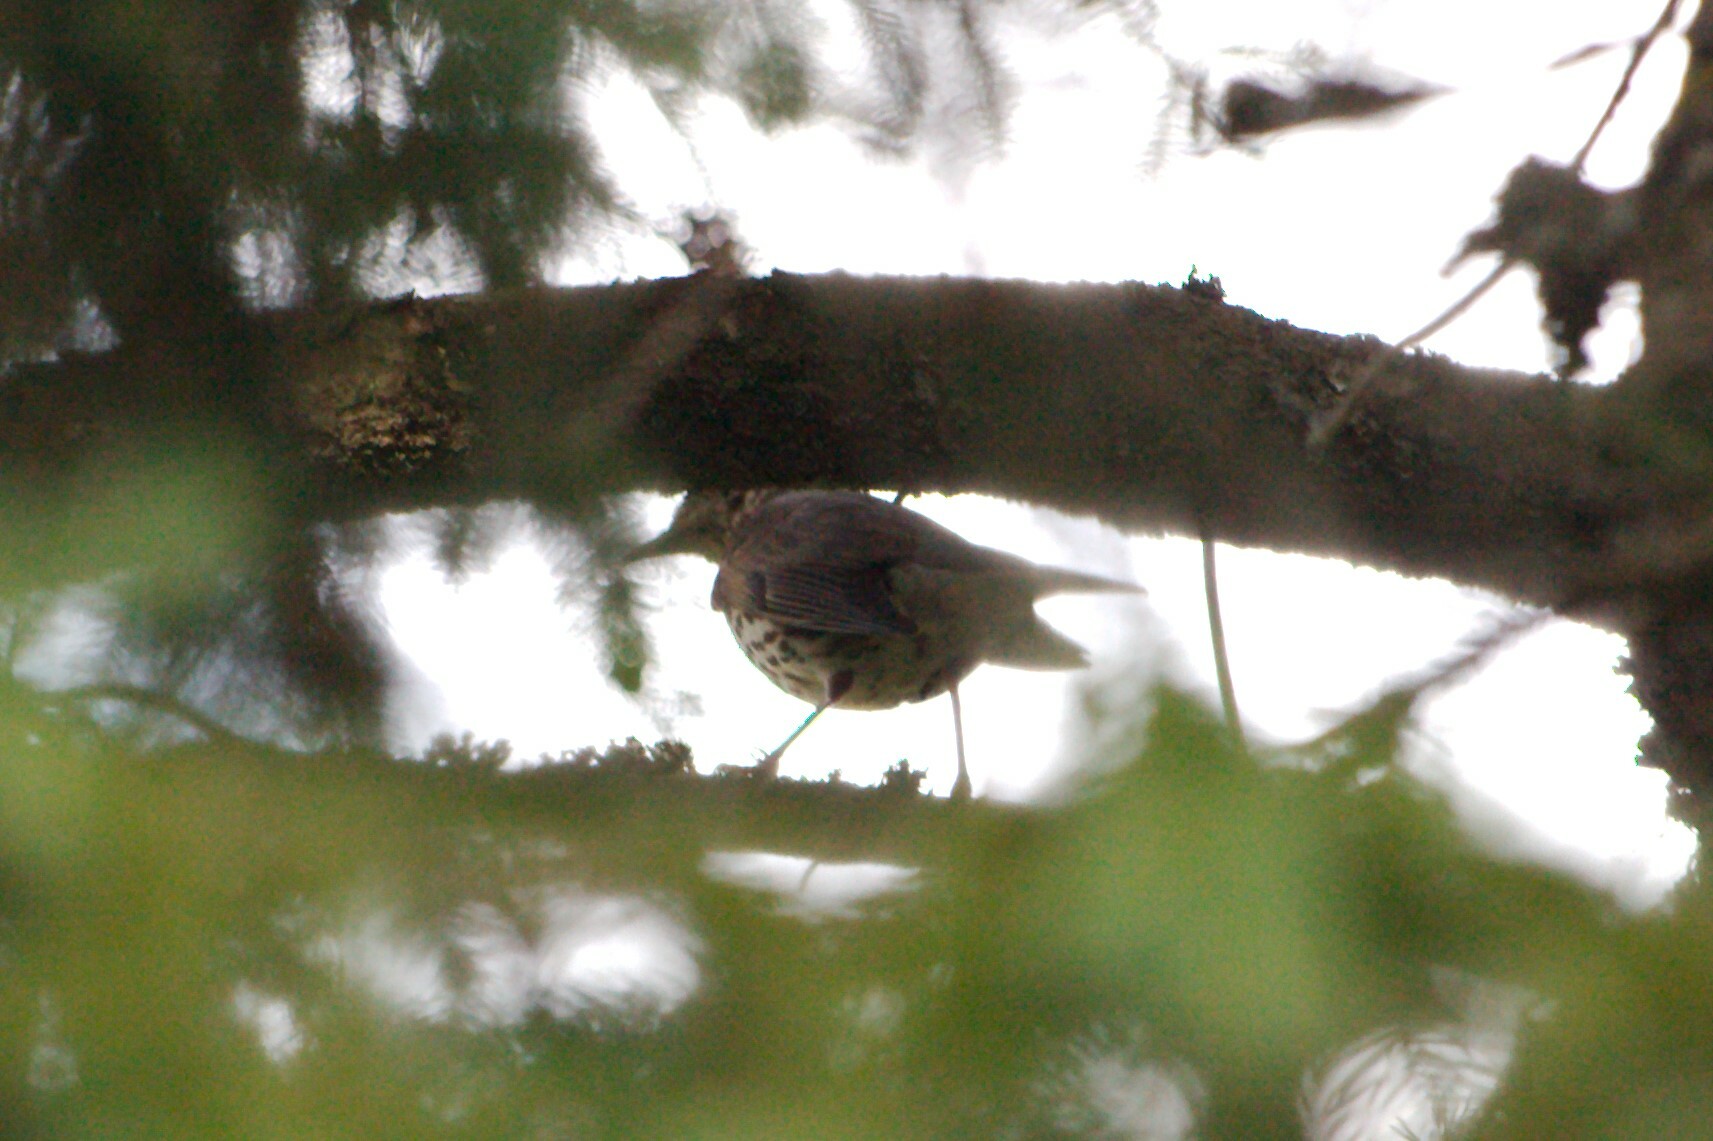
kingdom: Animalia
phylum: Chordata
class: Aves
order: Passeriformes
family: Turdidae
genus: Turdus
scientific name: Turdus philomelos
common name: Song thrush
